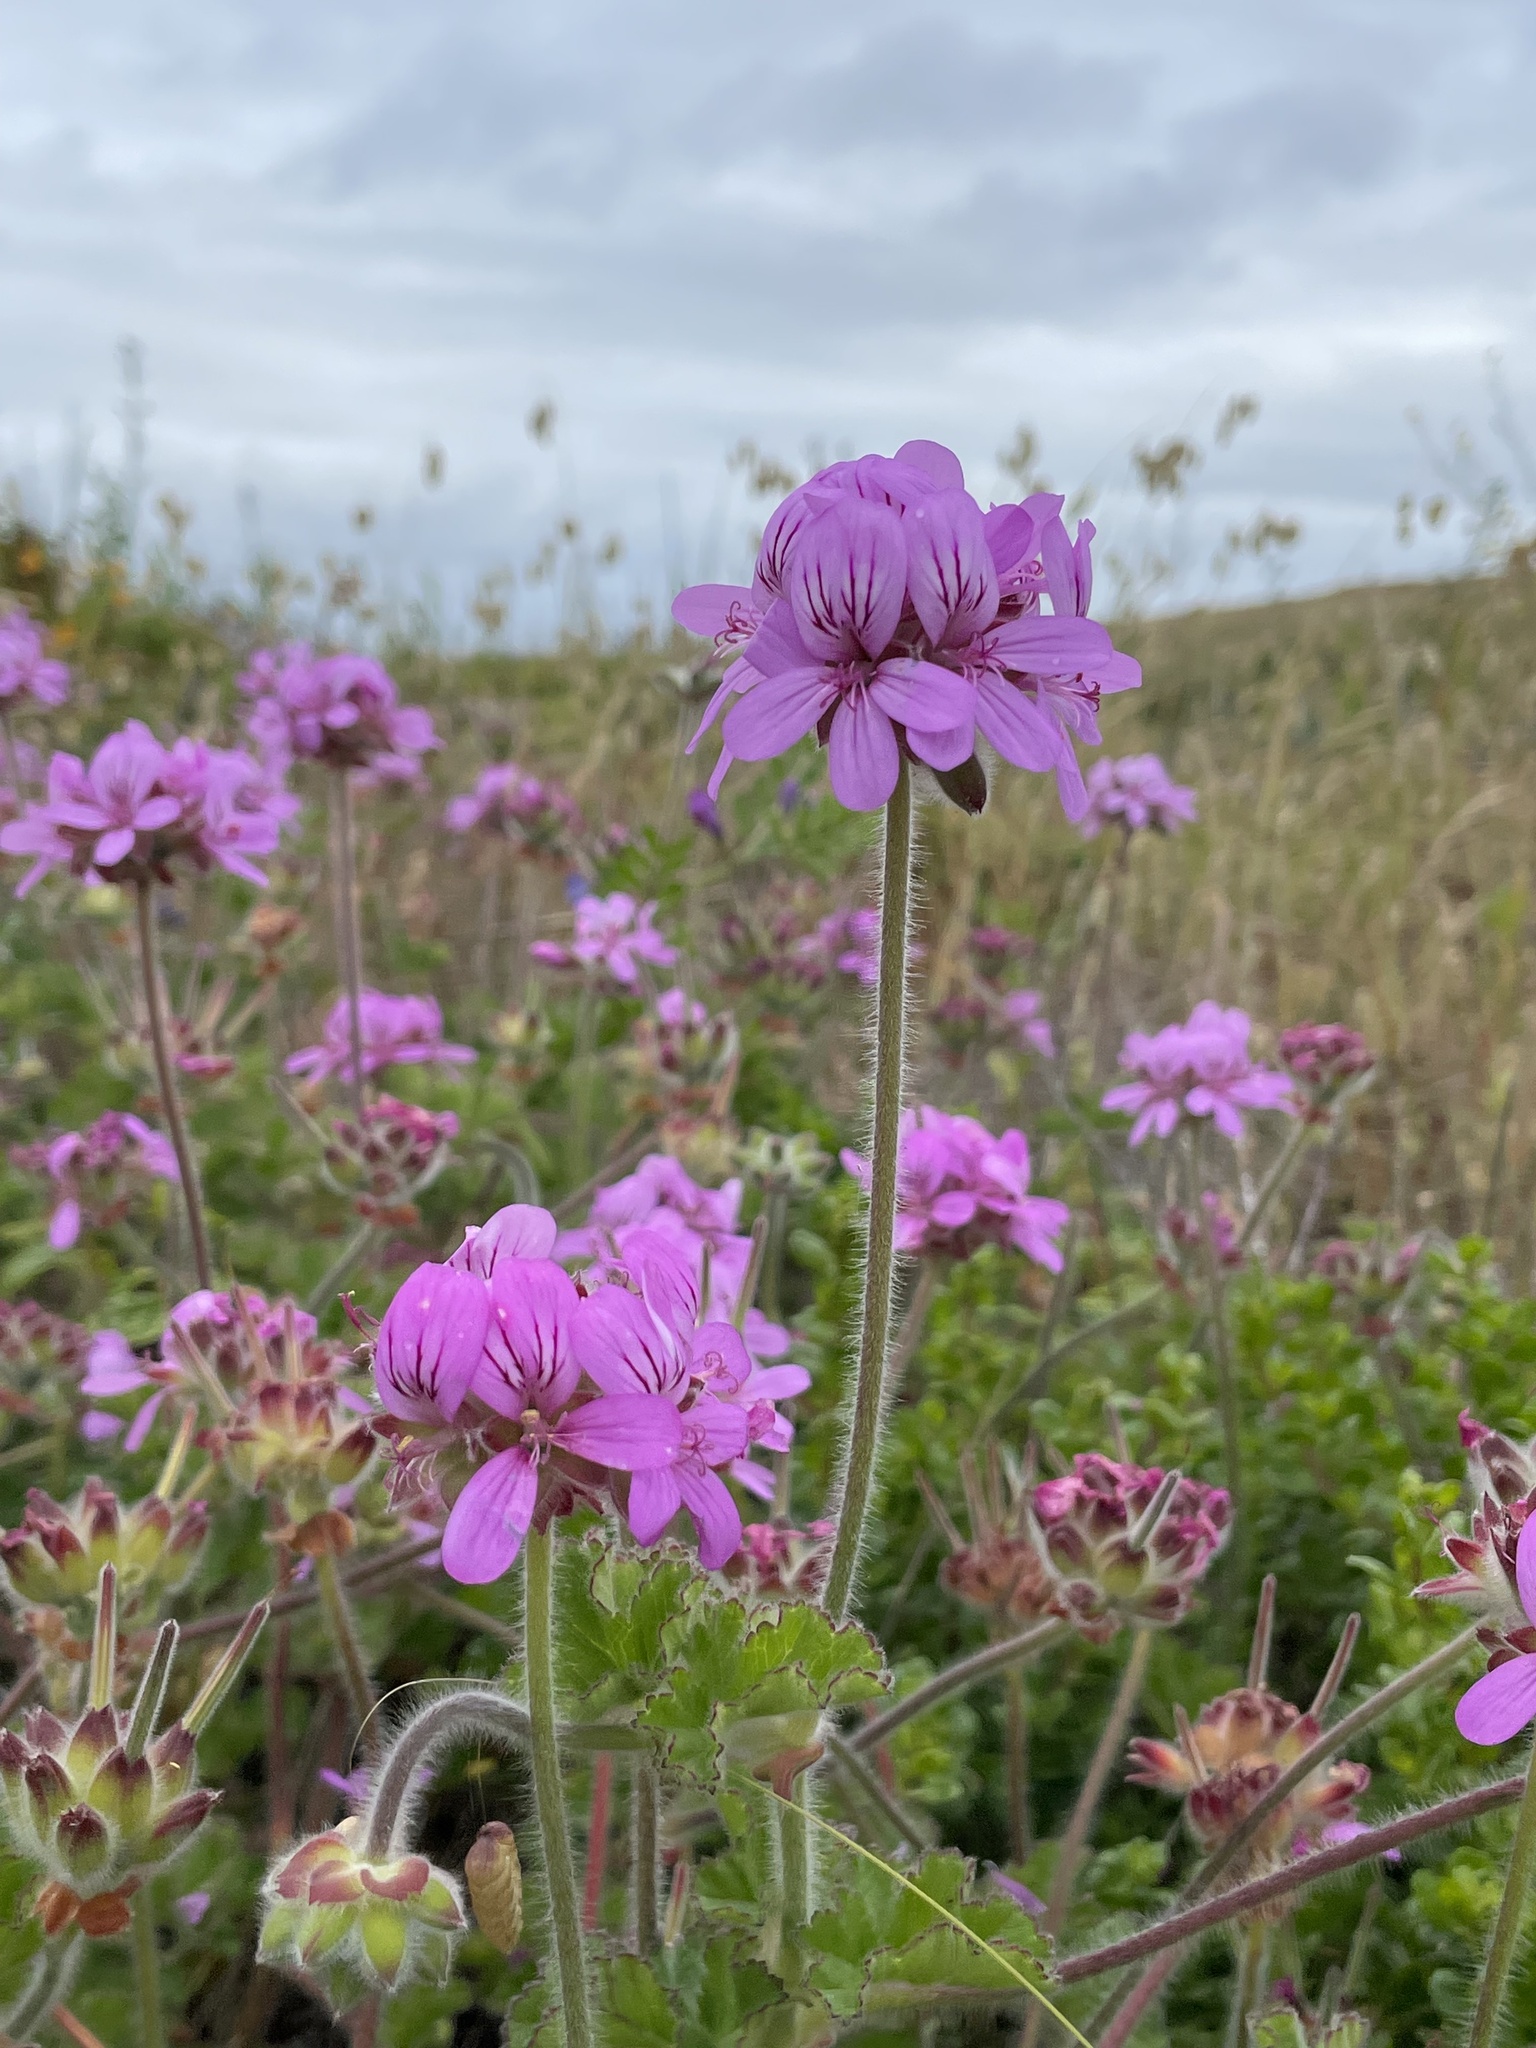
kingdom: Plantae
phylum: Tracheophyta
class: Magnoliopsida
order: Geraniales
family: Geraniaceae
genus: Pelargonium
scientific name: Pelargonium capitatum
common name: Rose scented geranium
